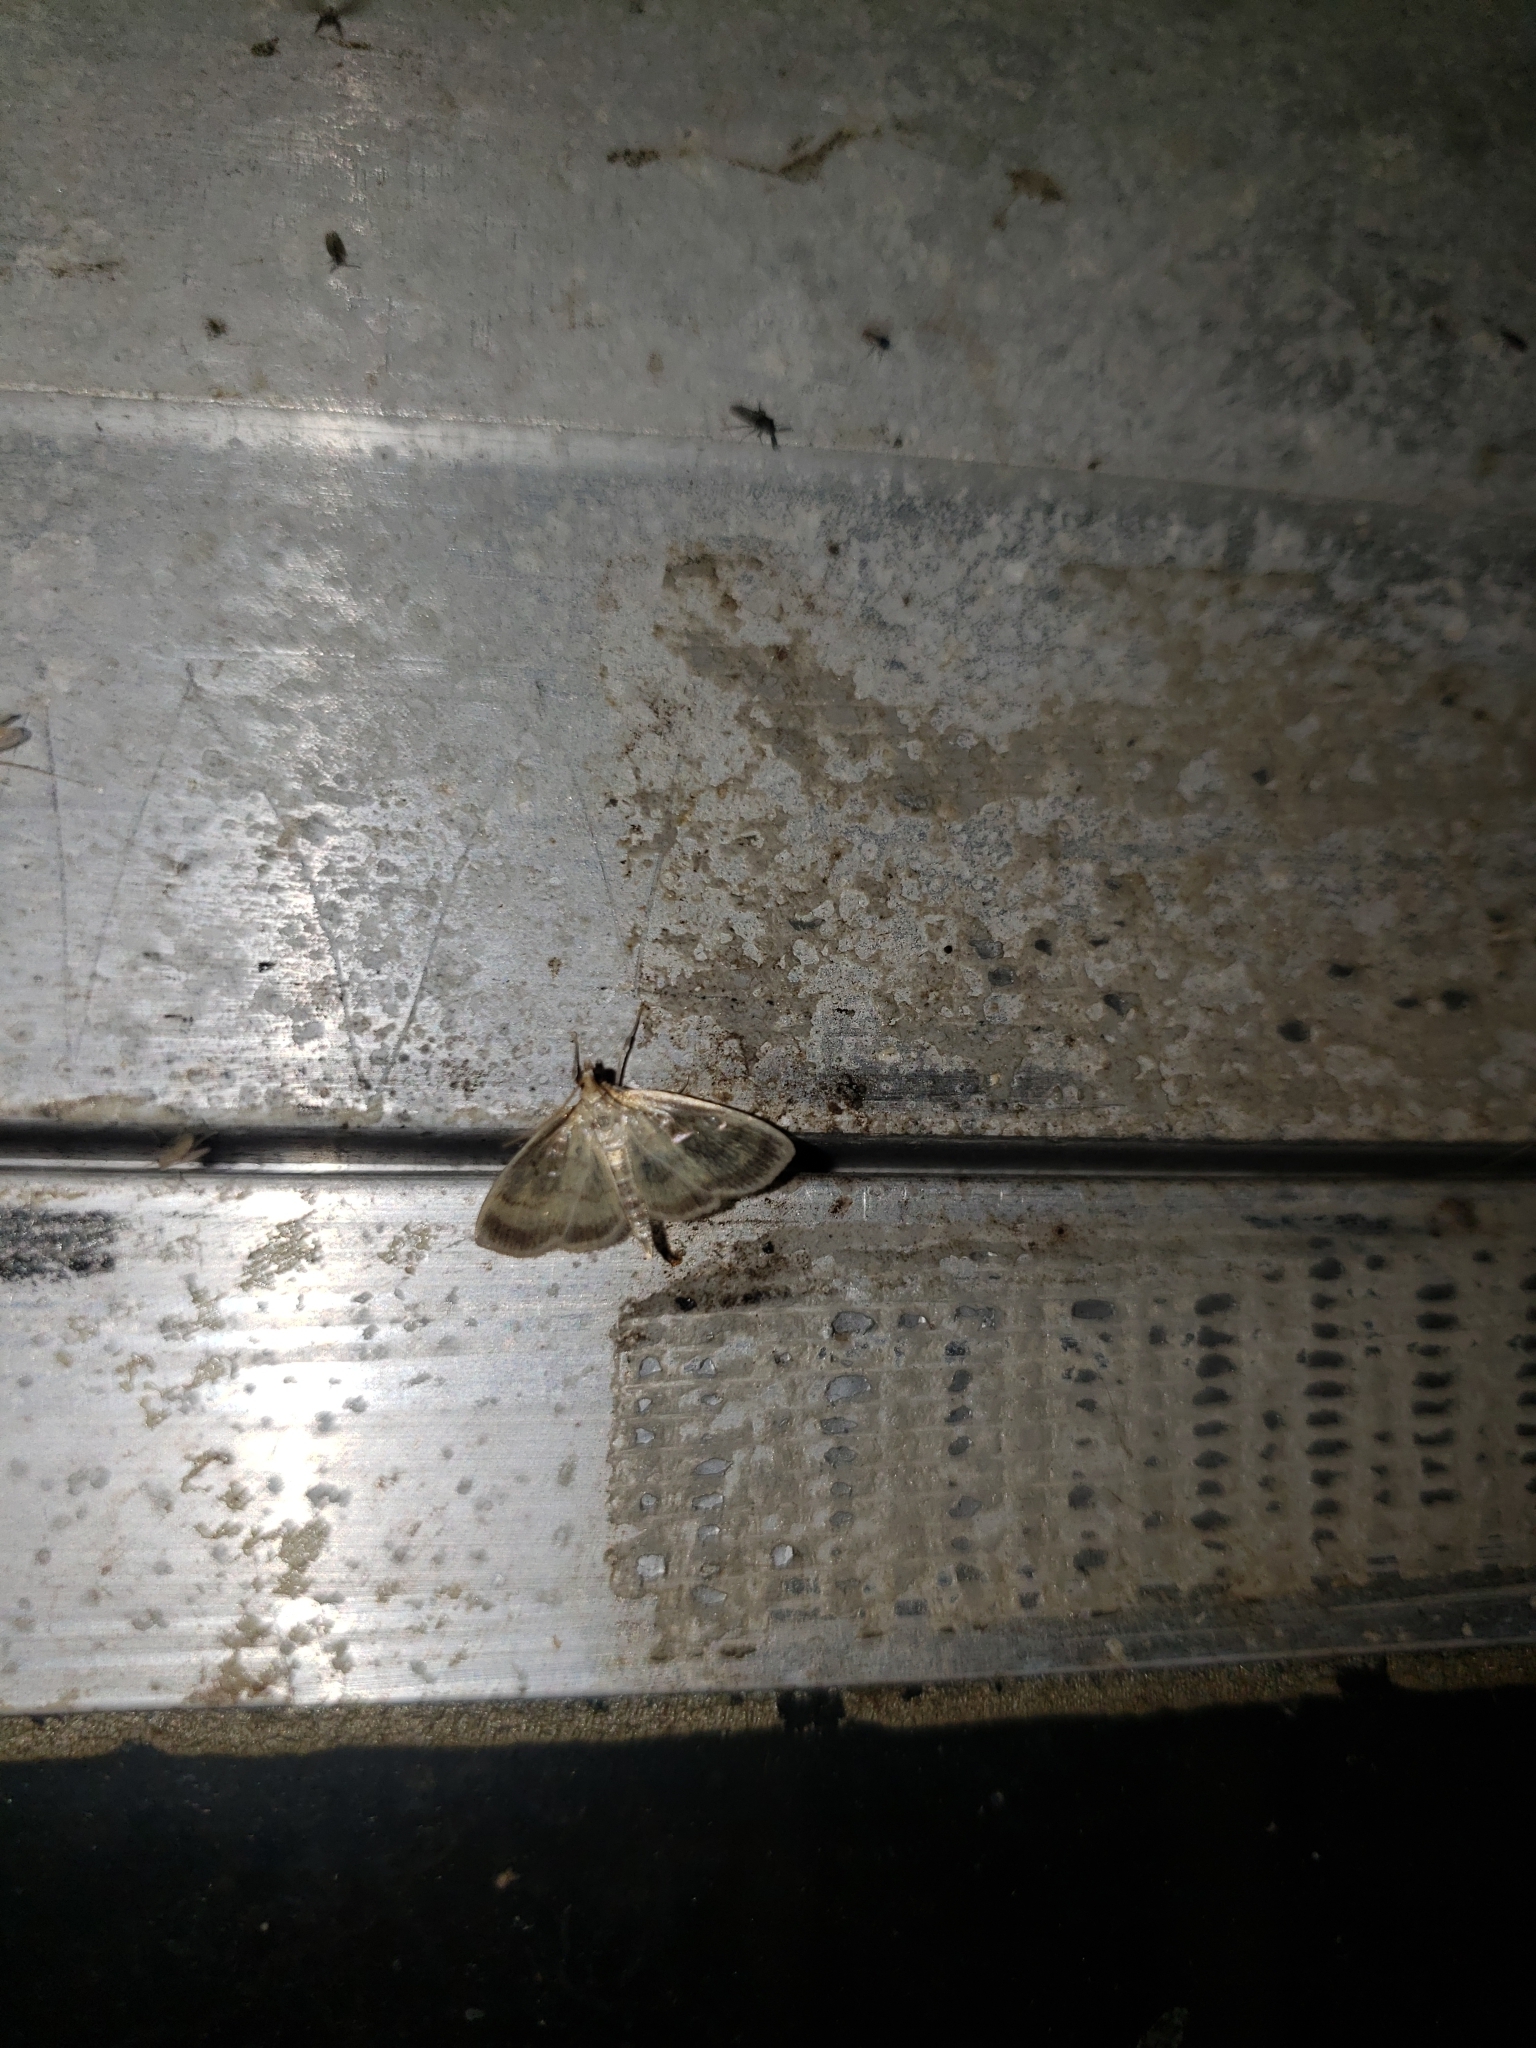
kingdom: Animalia
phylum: Arthropoda
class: Insecta
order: Lepidoptera
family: Crambidae
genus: Crocidophora
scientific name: Crocidophora tuberculalis
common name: Pale-winged crocidiphora moth
